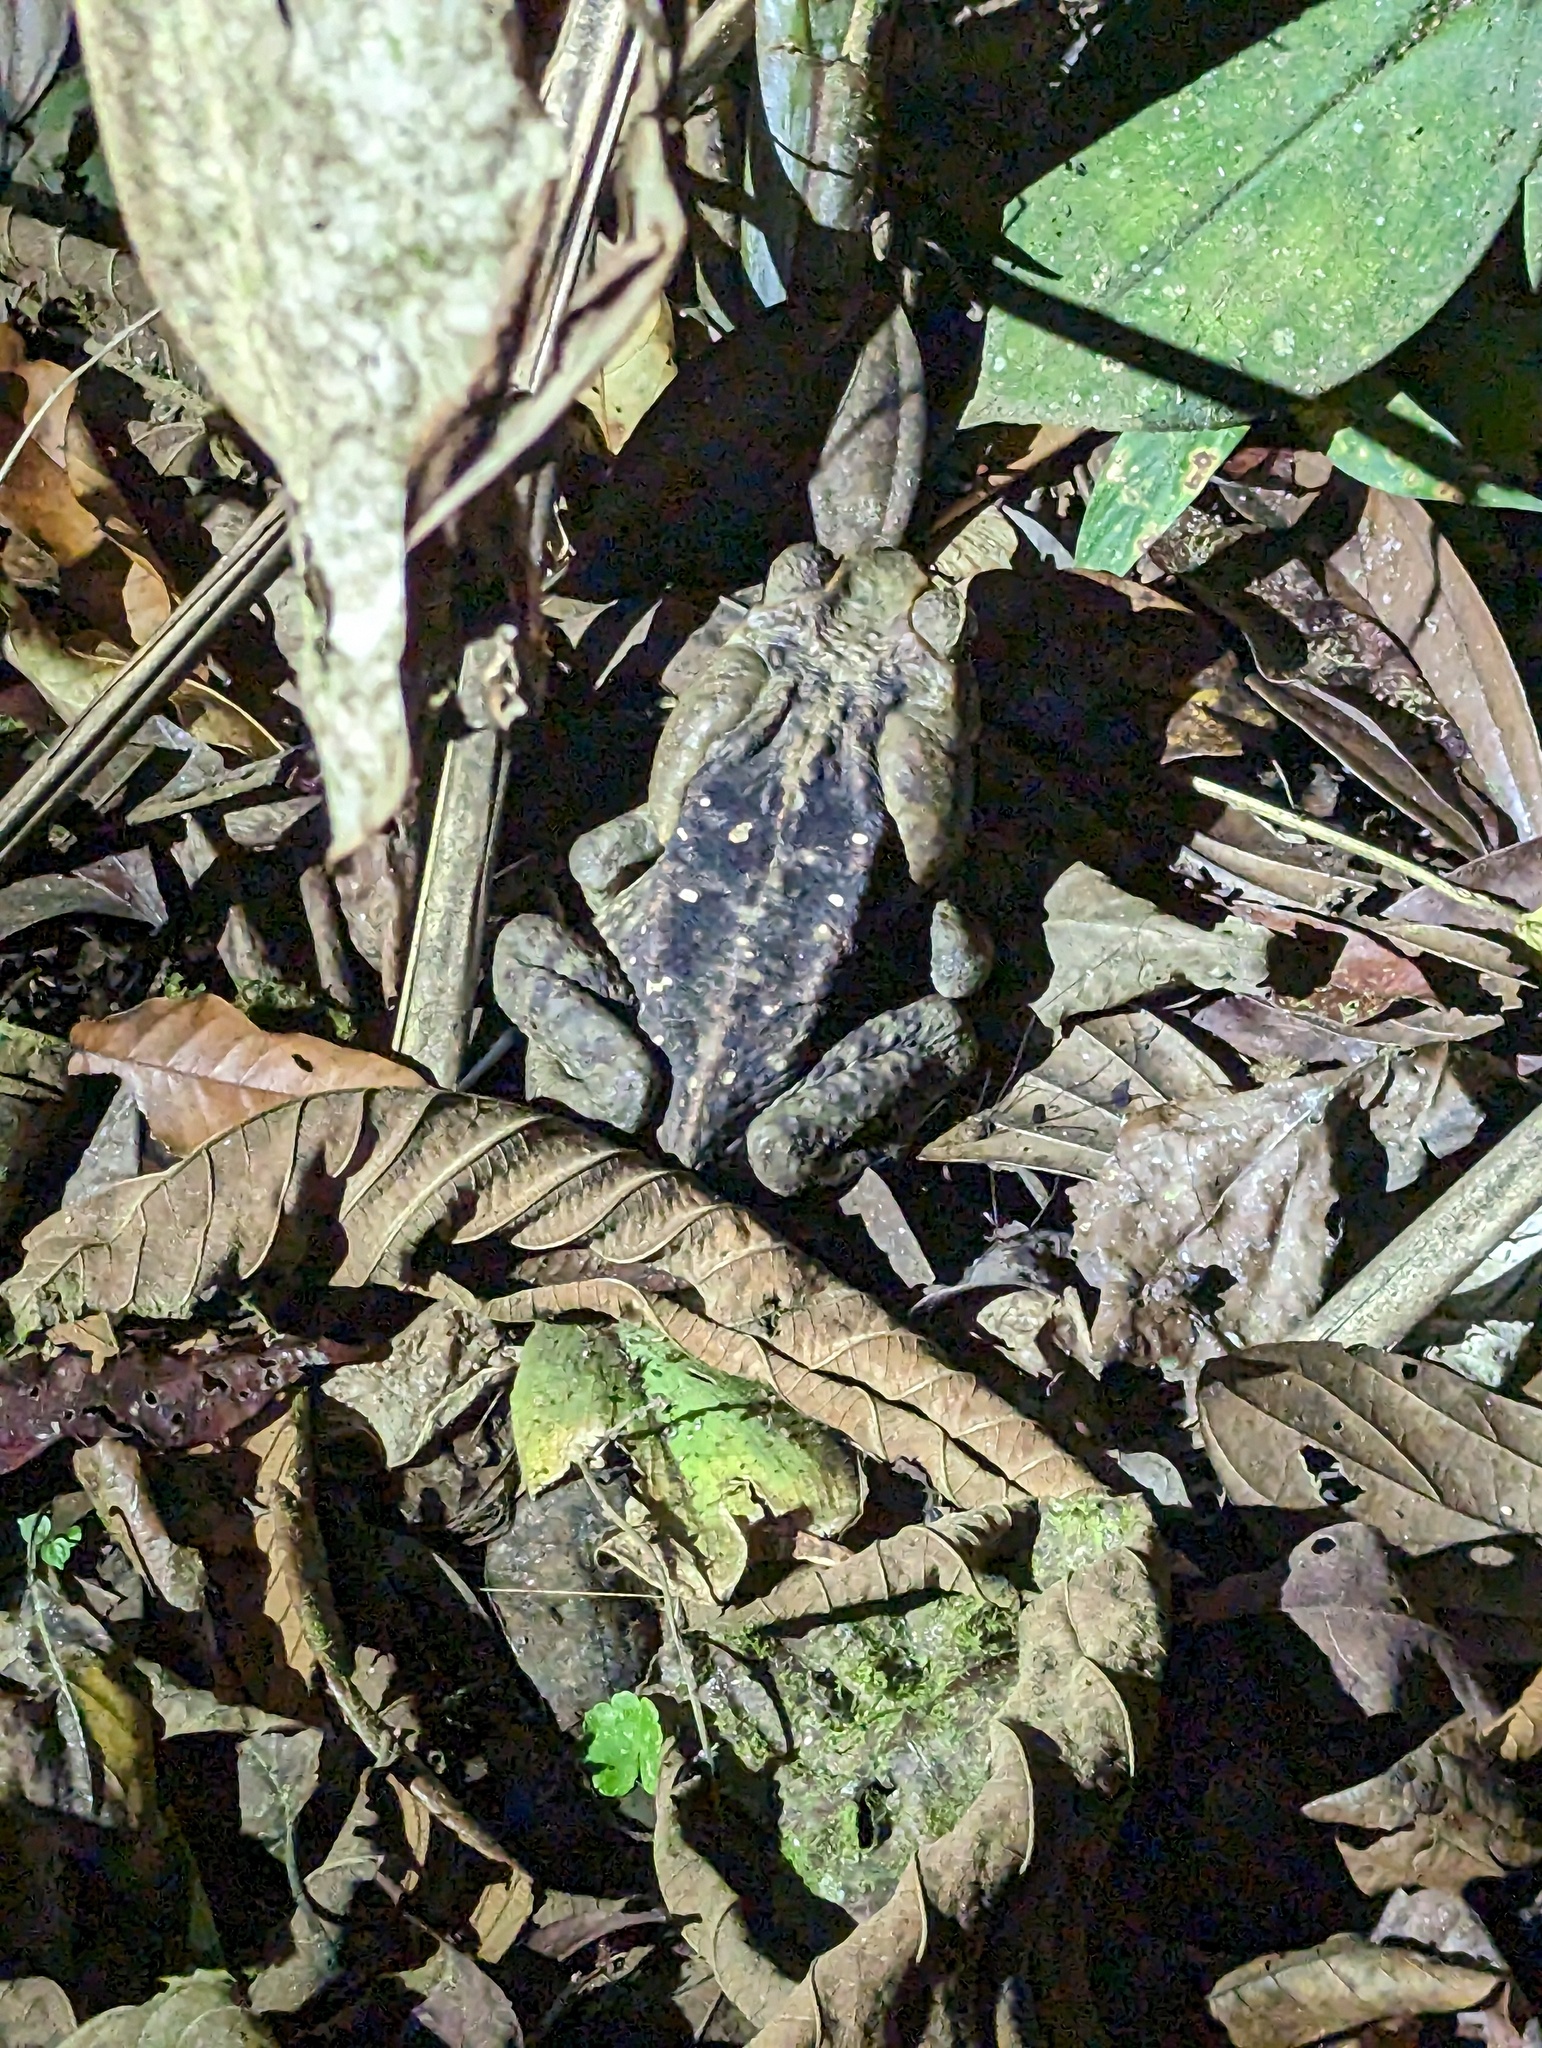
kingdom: Animalia
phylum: Chordata
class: Amphibia
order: Anura
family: Bufonidae
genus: Rhinella
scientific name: Rhinella horribilis
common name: Mesoamerican cane toad
